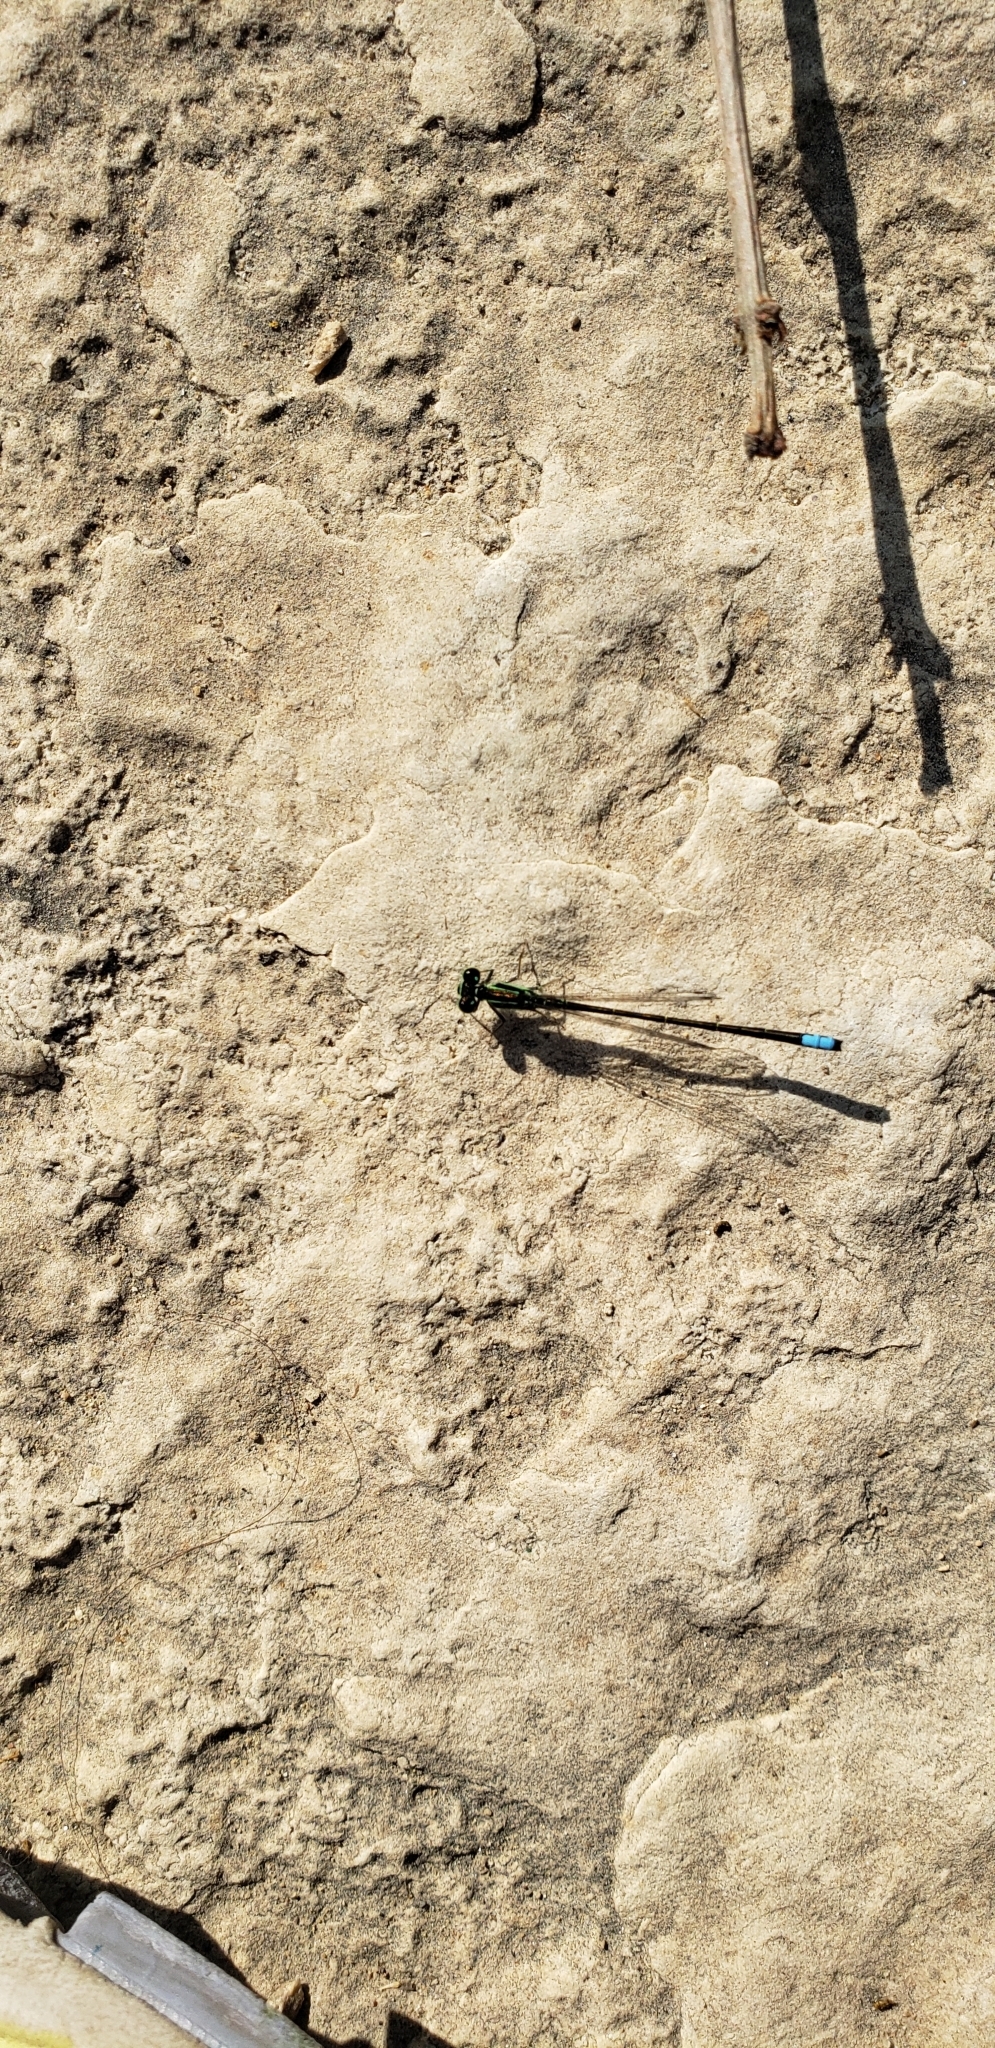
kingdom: Animalia
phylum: Arthropoda
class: Insecta
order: Odonata
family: Coenagrionidae
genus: Ischnura
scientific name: Ischnura verticalis
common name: Eastern forktail
